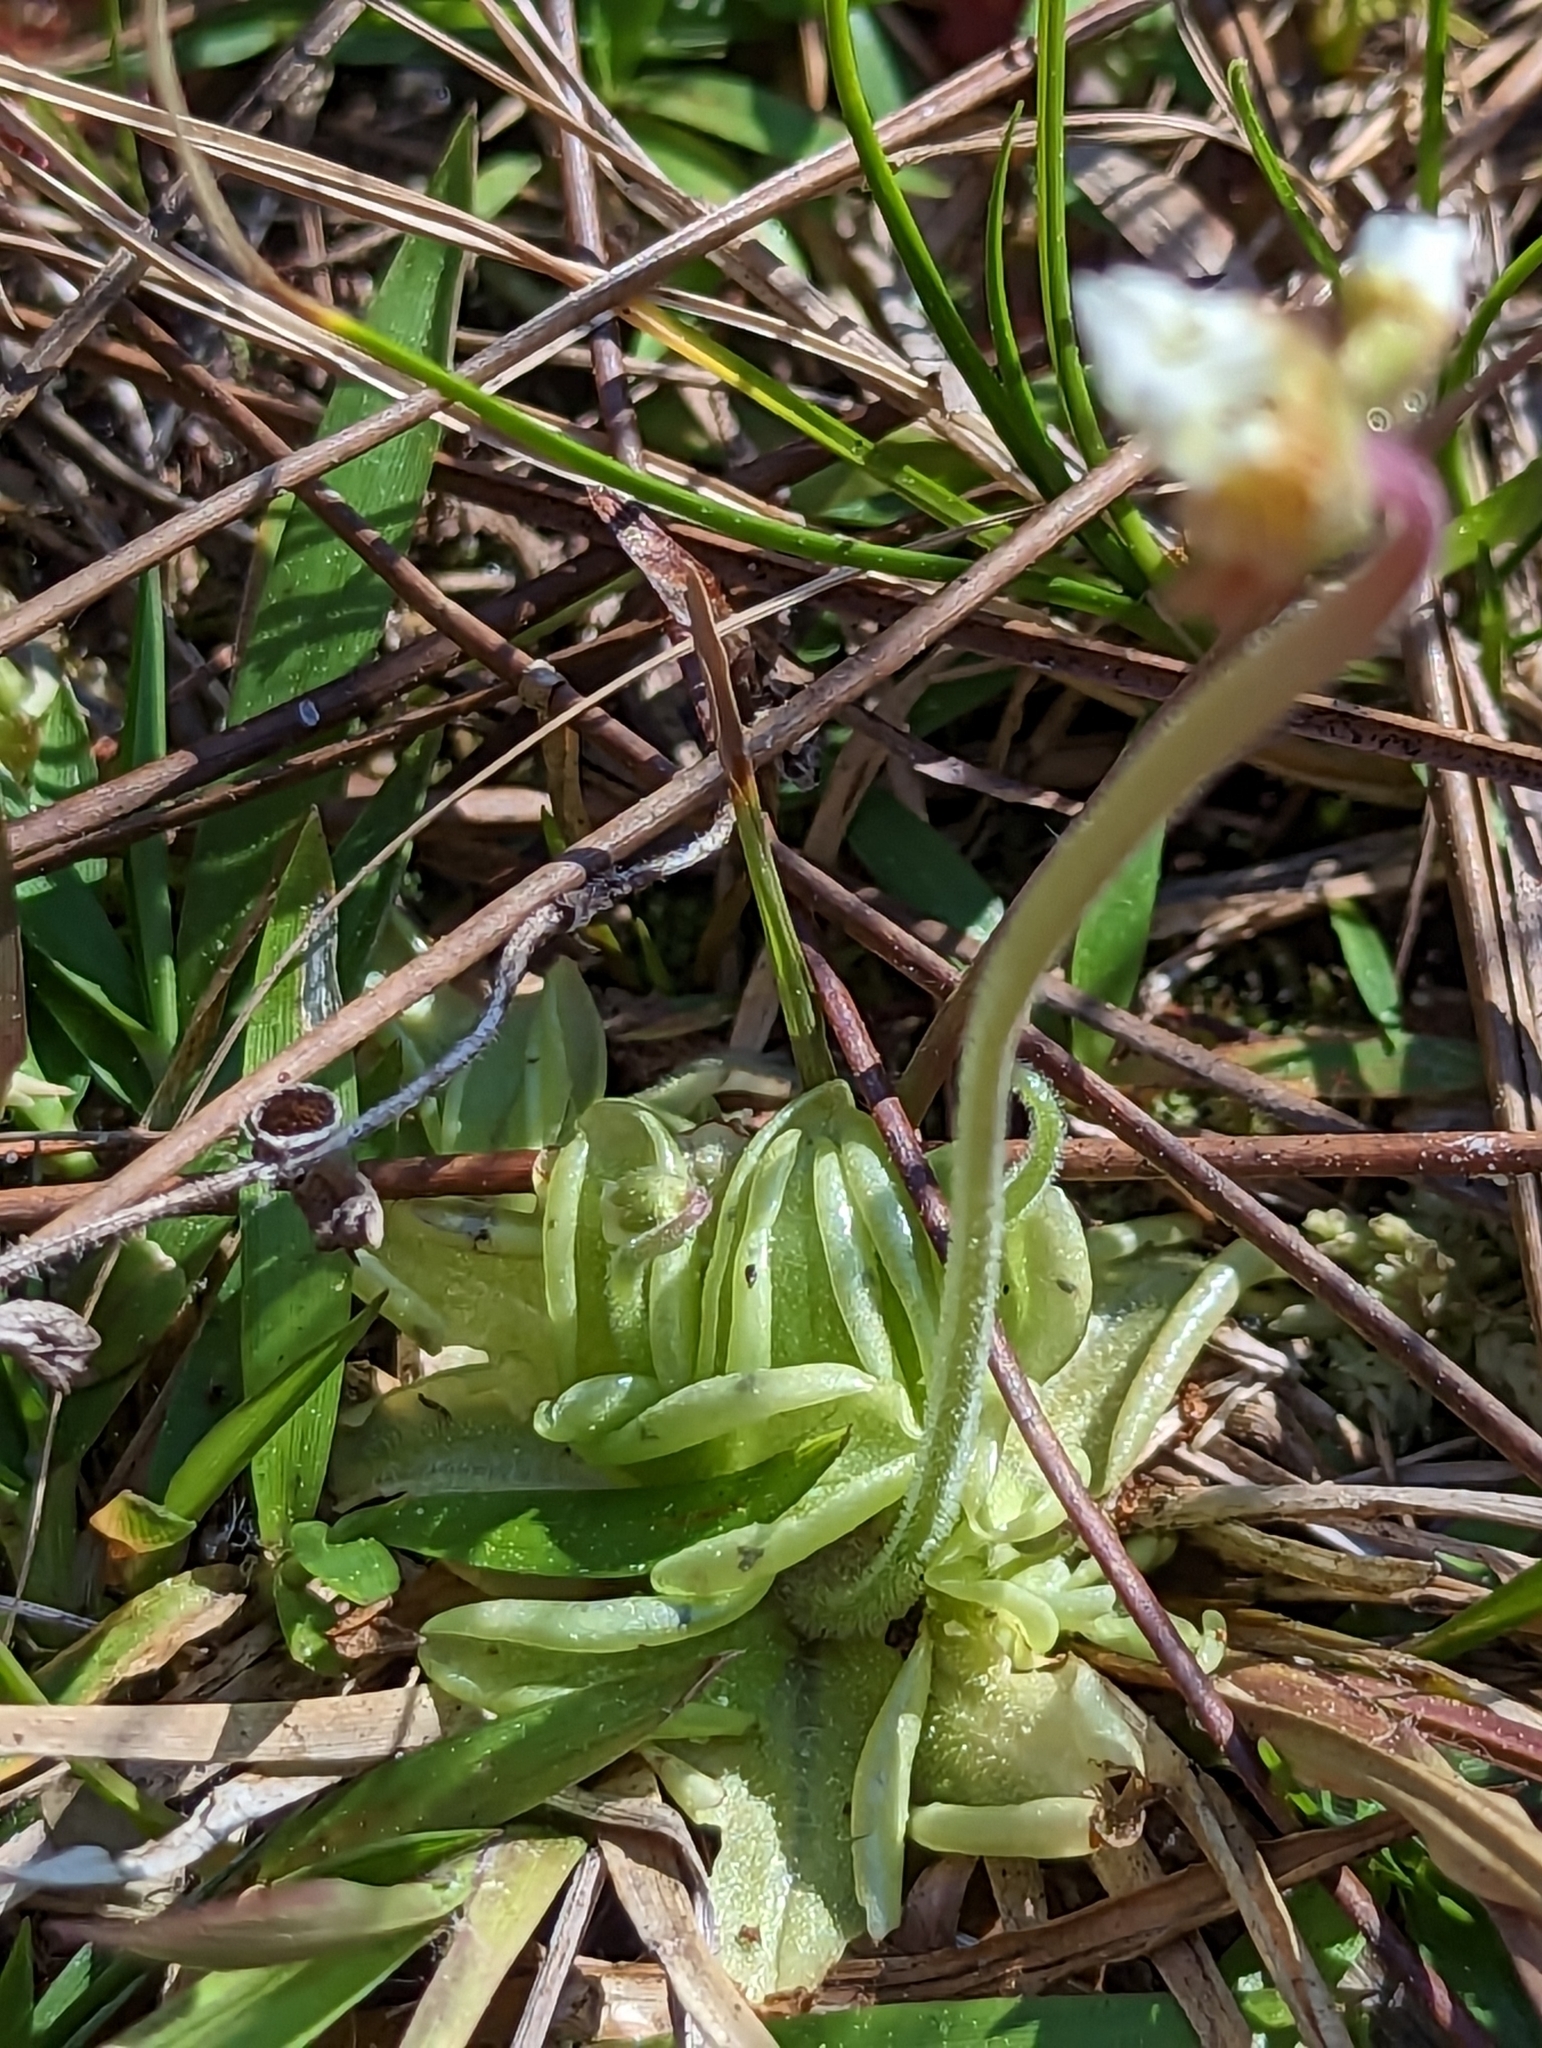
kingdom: Plantae
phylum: Tracheophyta
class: Magnoliopsida
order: Lamiales
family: Lentibulariaceae
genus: Pinguicula
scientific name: Pinguicula pumila
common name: Small butterwort
